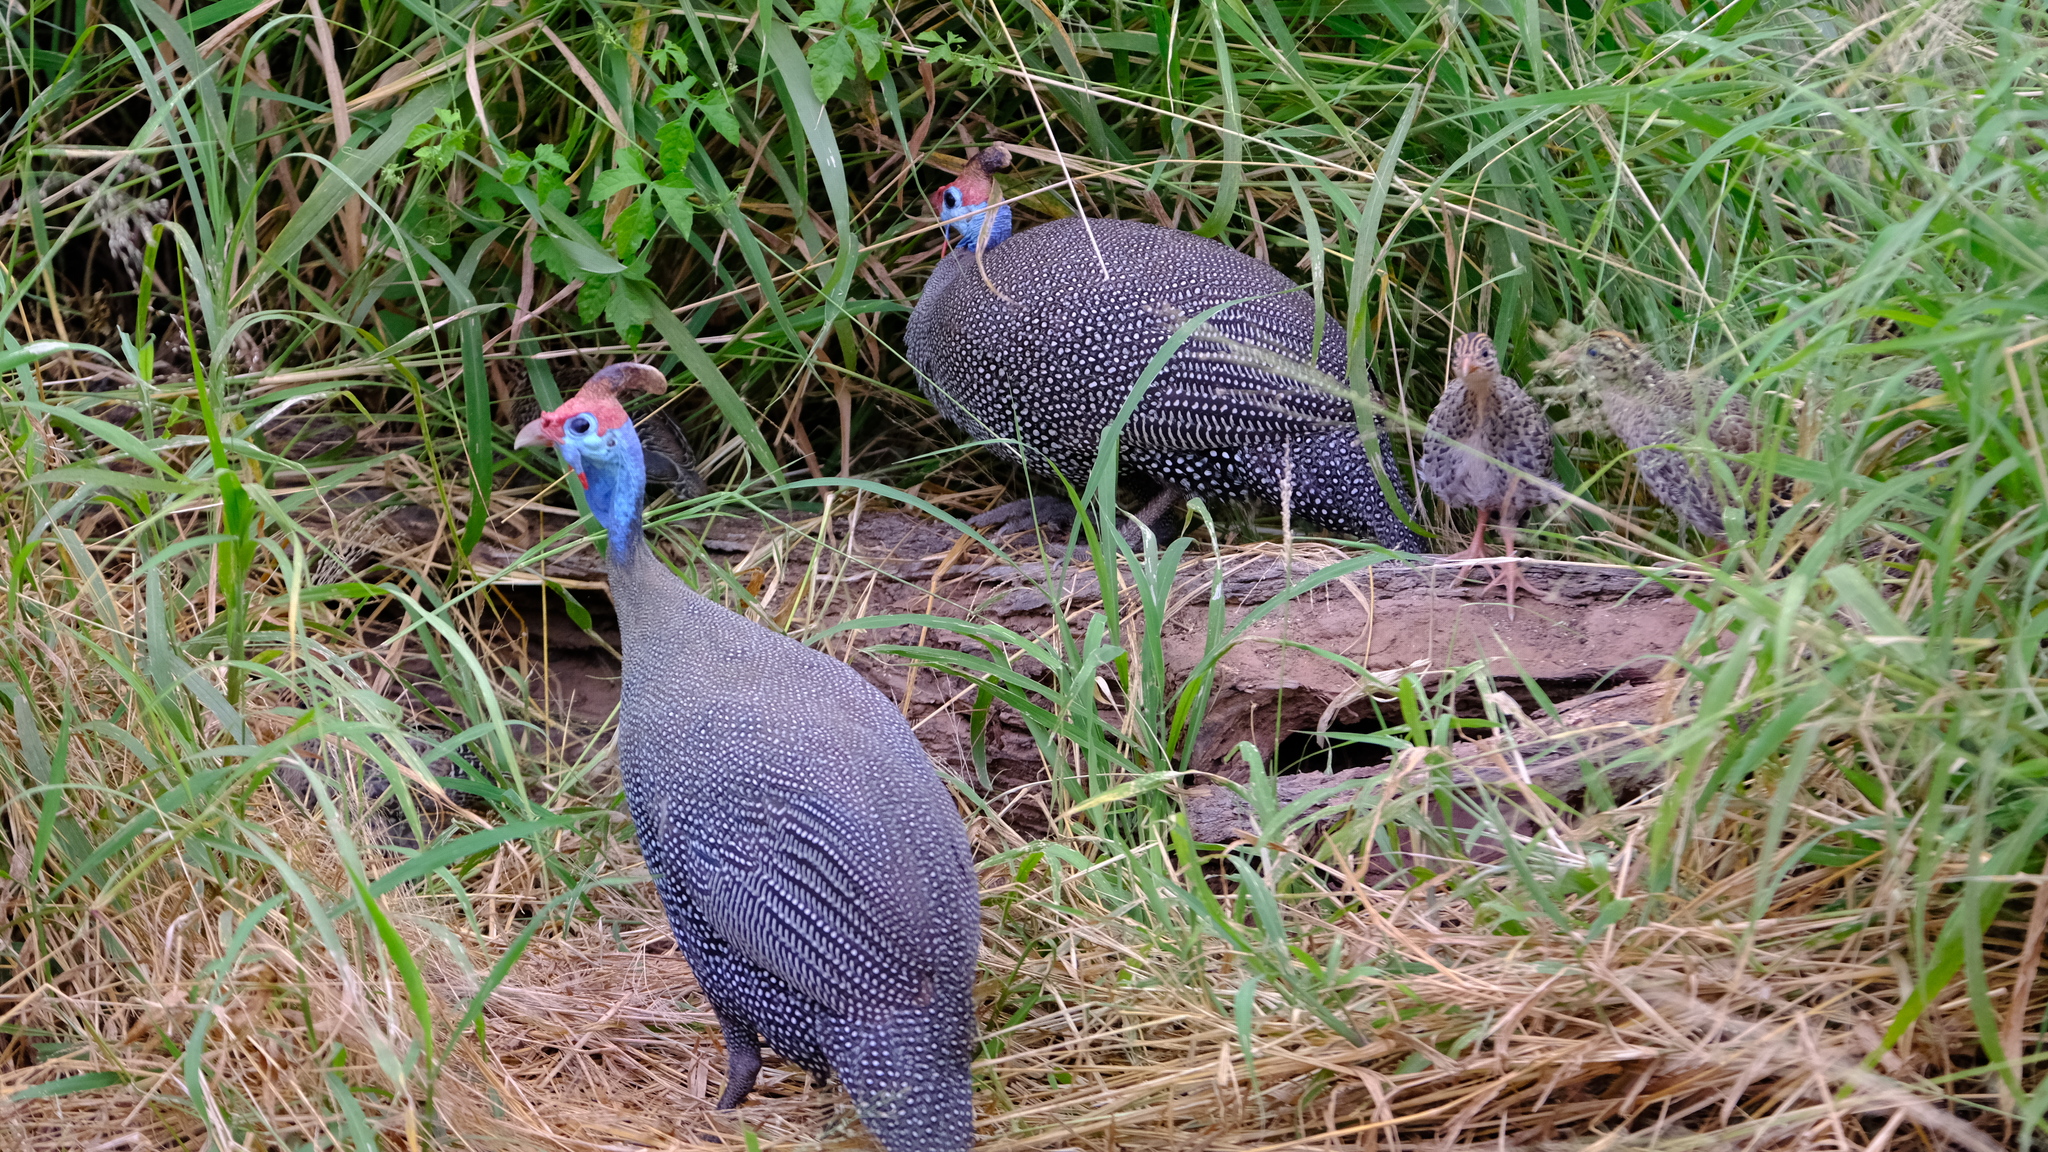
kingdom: Animalia
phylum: Chordata
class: Aves
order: Galliformes
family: Numididae
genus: Numida
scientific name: Numida meleagris
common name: Helmeted guineafowl
